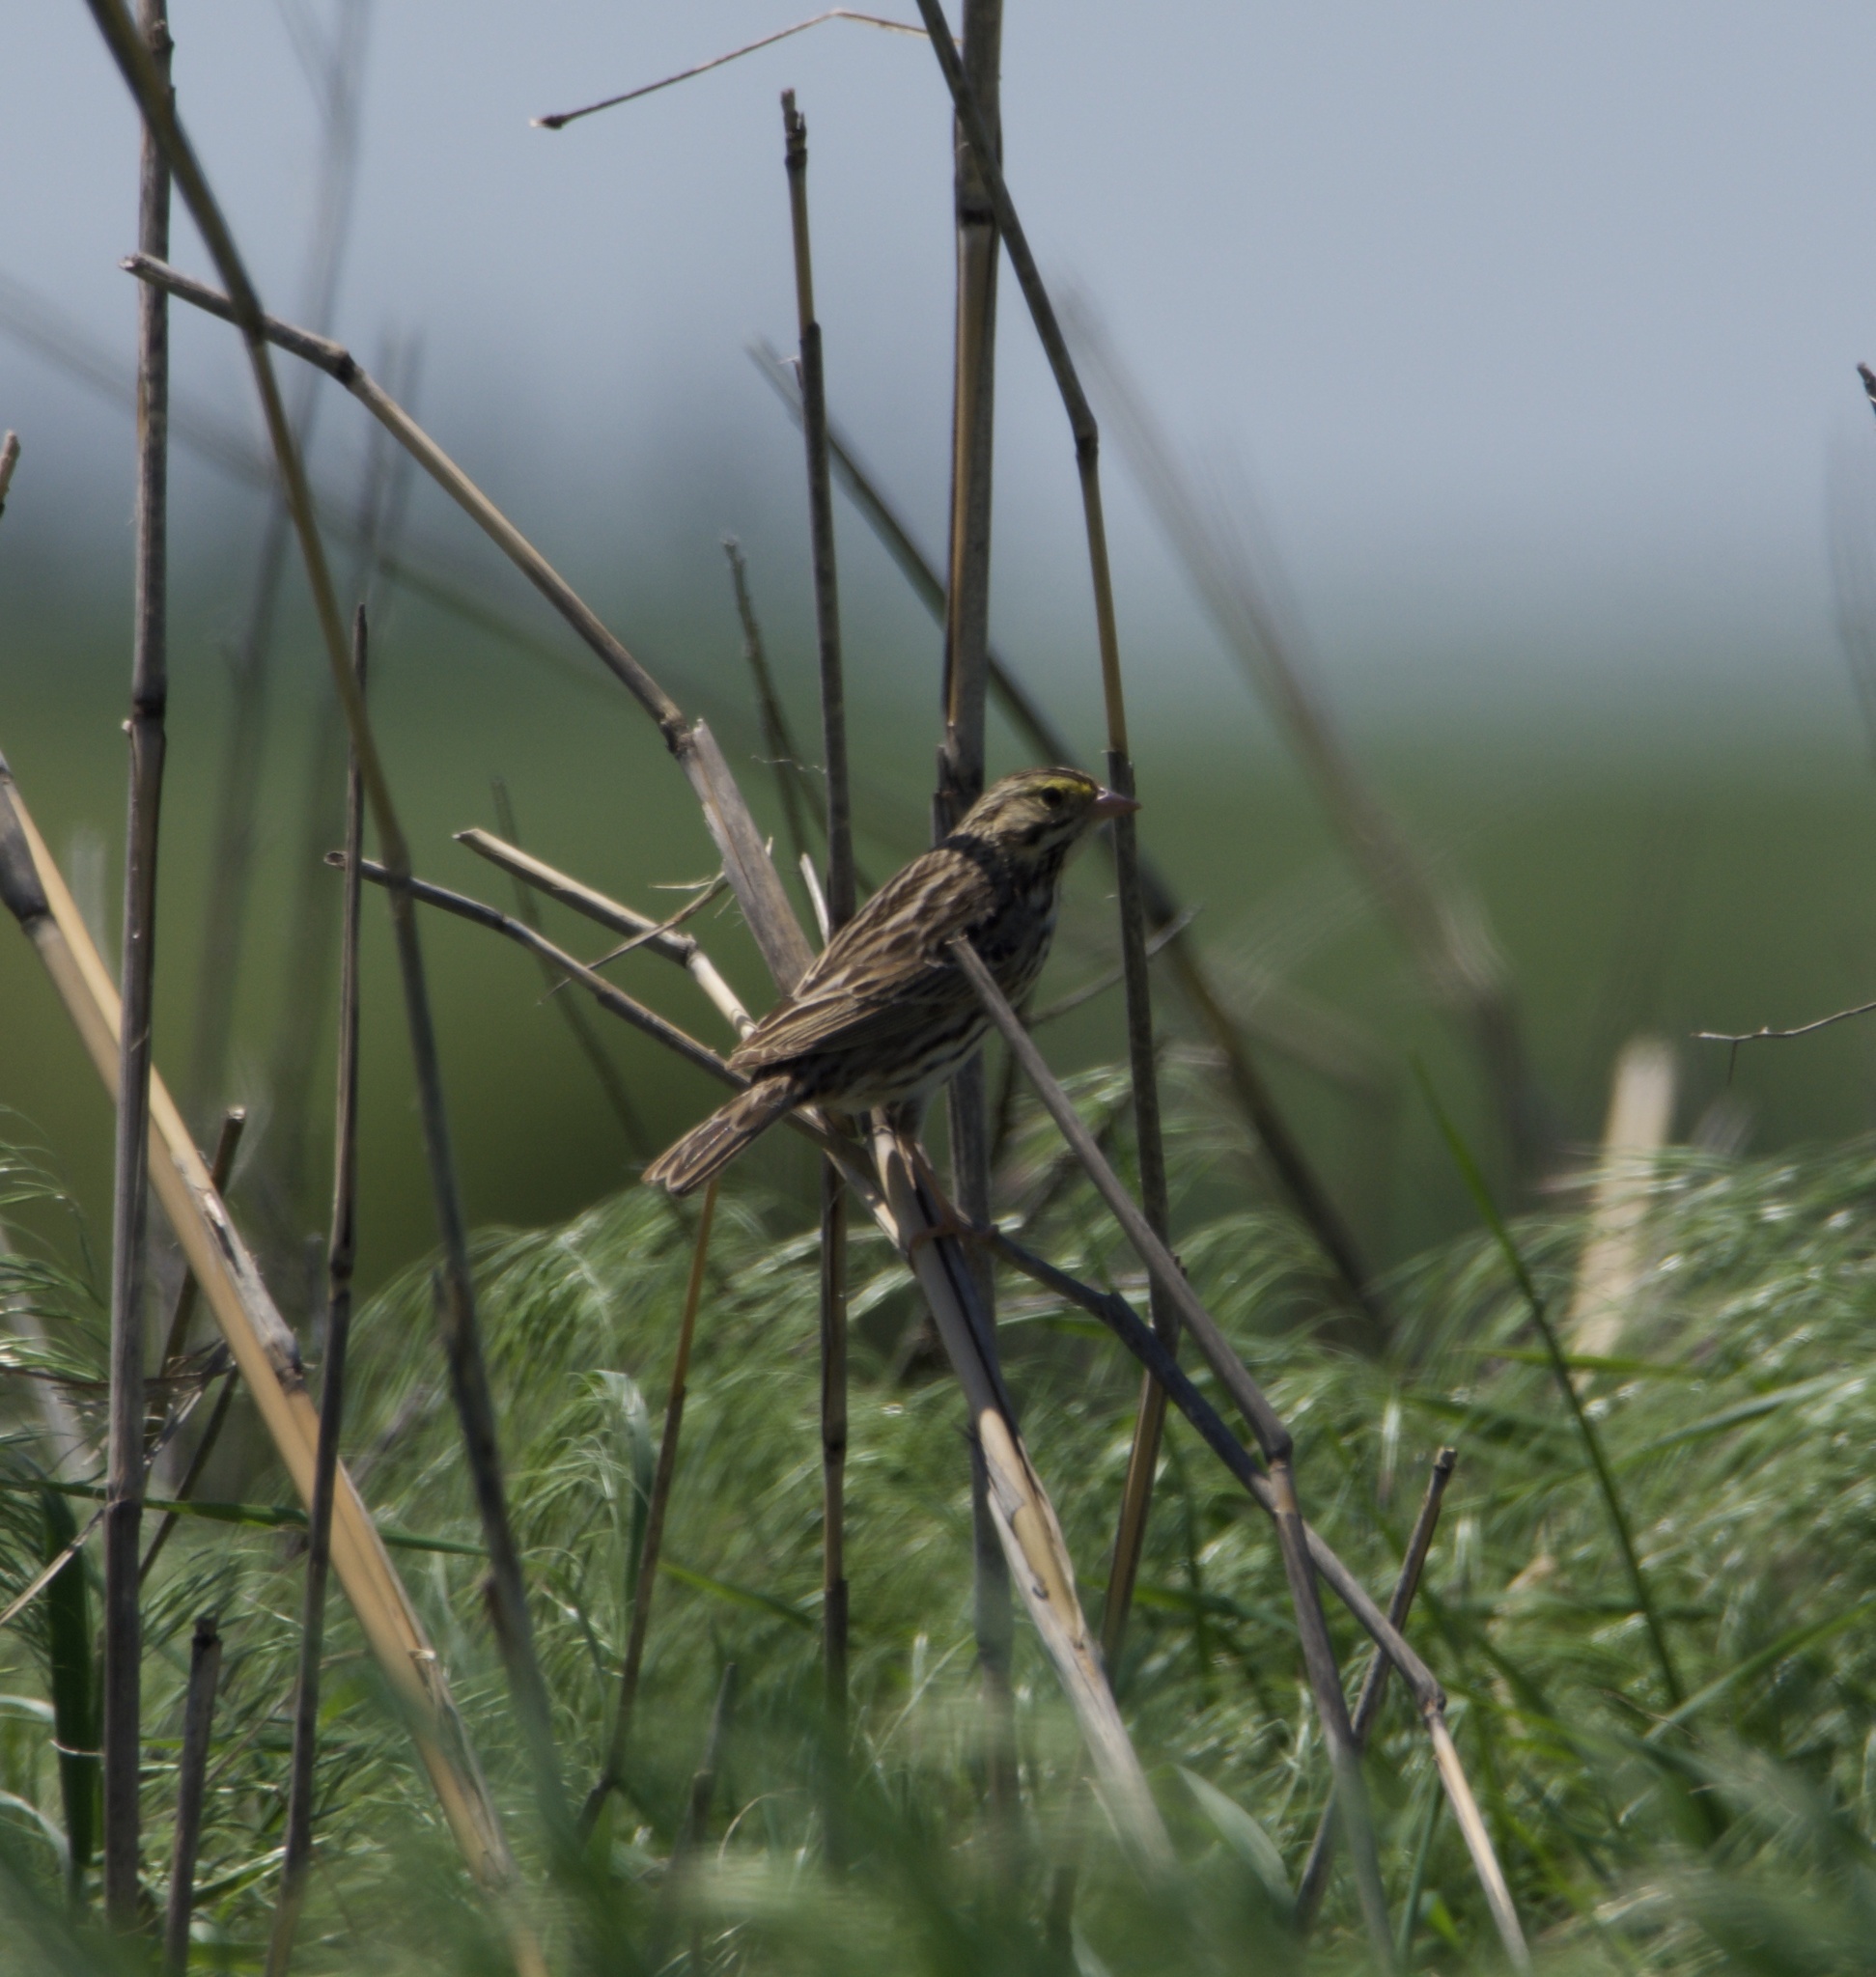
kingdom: Animalia
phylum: Chordata
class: Aves
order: Passeriformes
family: Passerellidae
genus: Passerculus
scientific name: Passerculus sandwichensis
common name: Savannah sparrow
